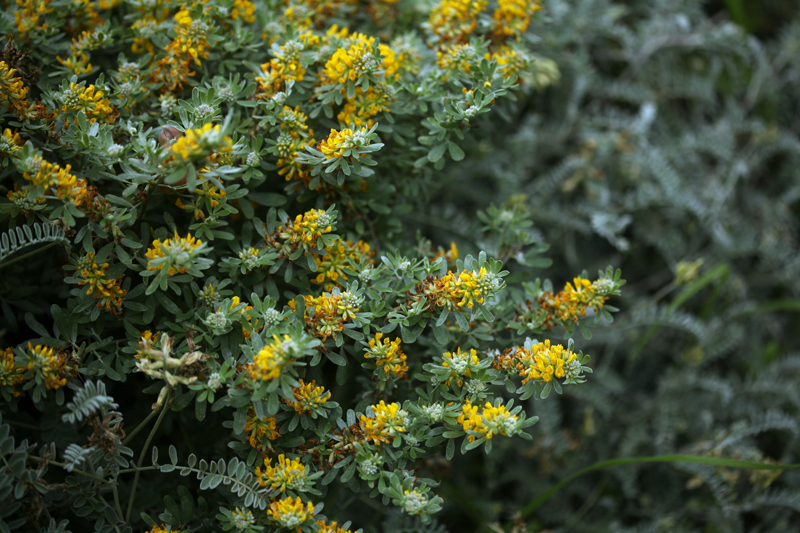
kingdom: Plantae
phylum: Tracheophyta
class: Magnoliopsida
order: Fabales
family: Fabaceae
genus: Acmispon
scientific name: Acmispon dendroideus
